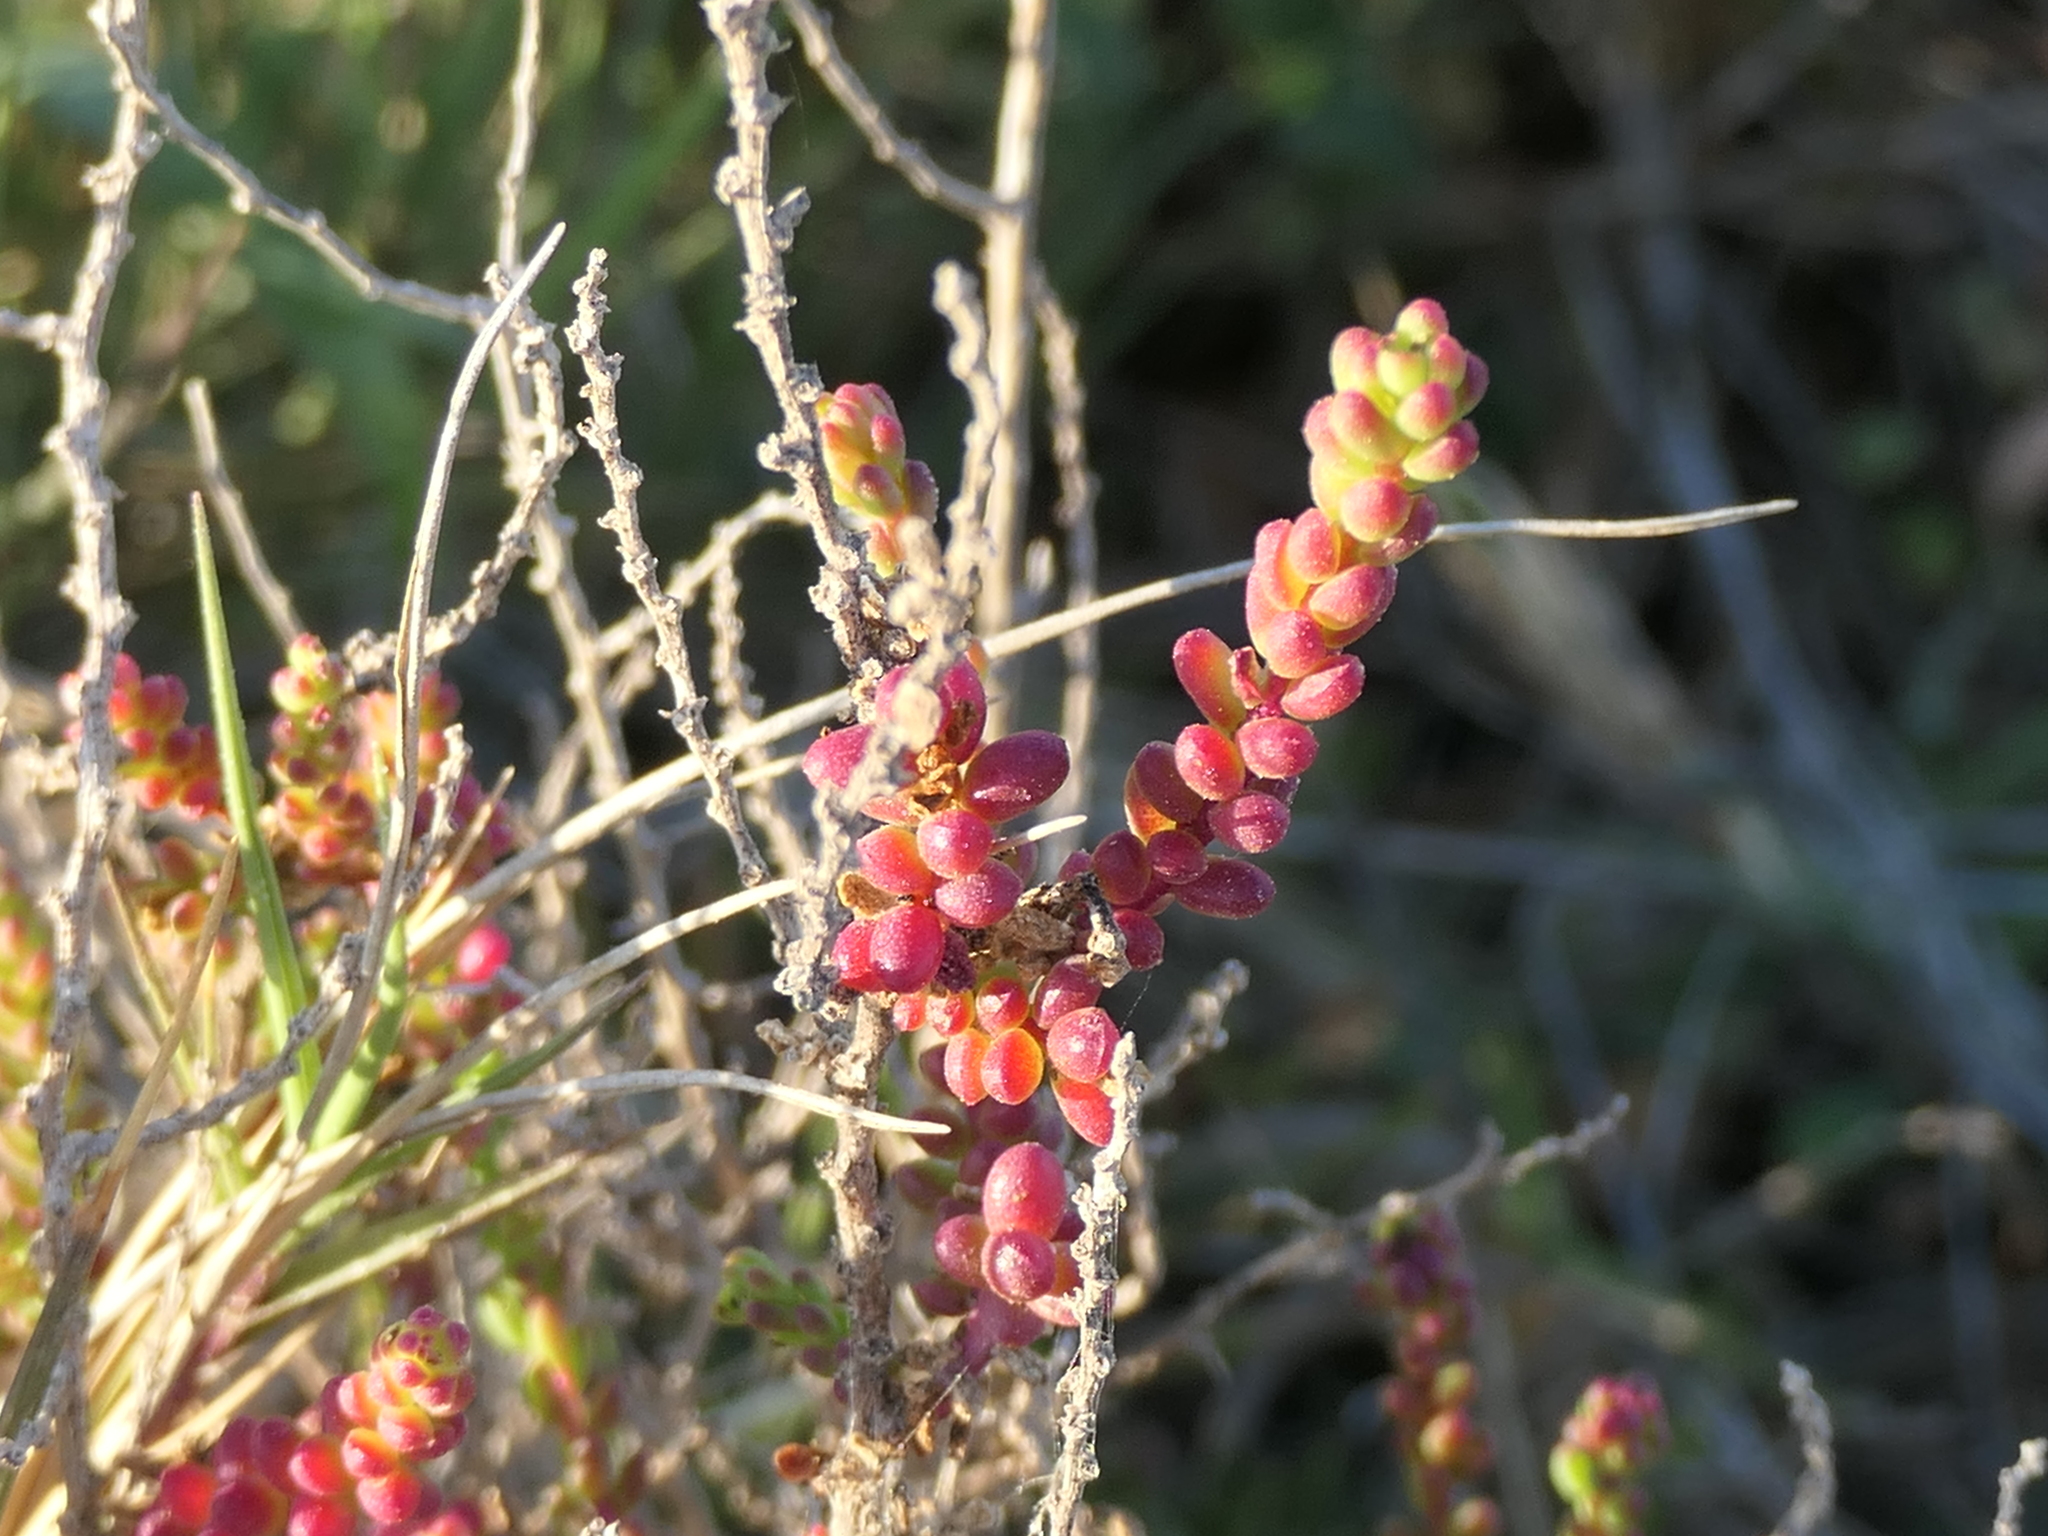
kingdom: Plantae
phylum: Tracheophyta
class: Magnoliopsida
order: Caryophyllales
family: Amaranthaceae
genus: Suaeda
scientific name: Suaeda vera
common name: Shrubby sea-blite
